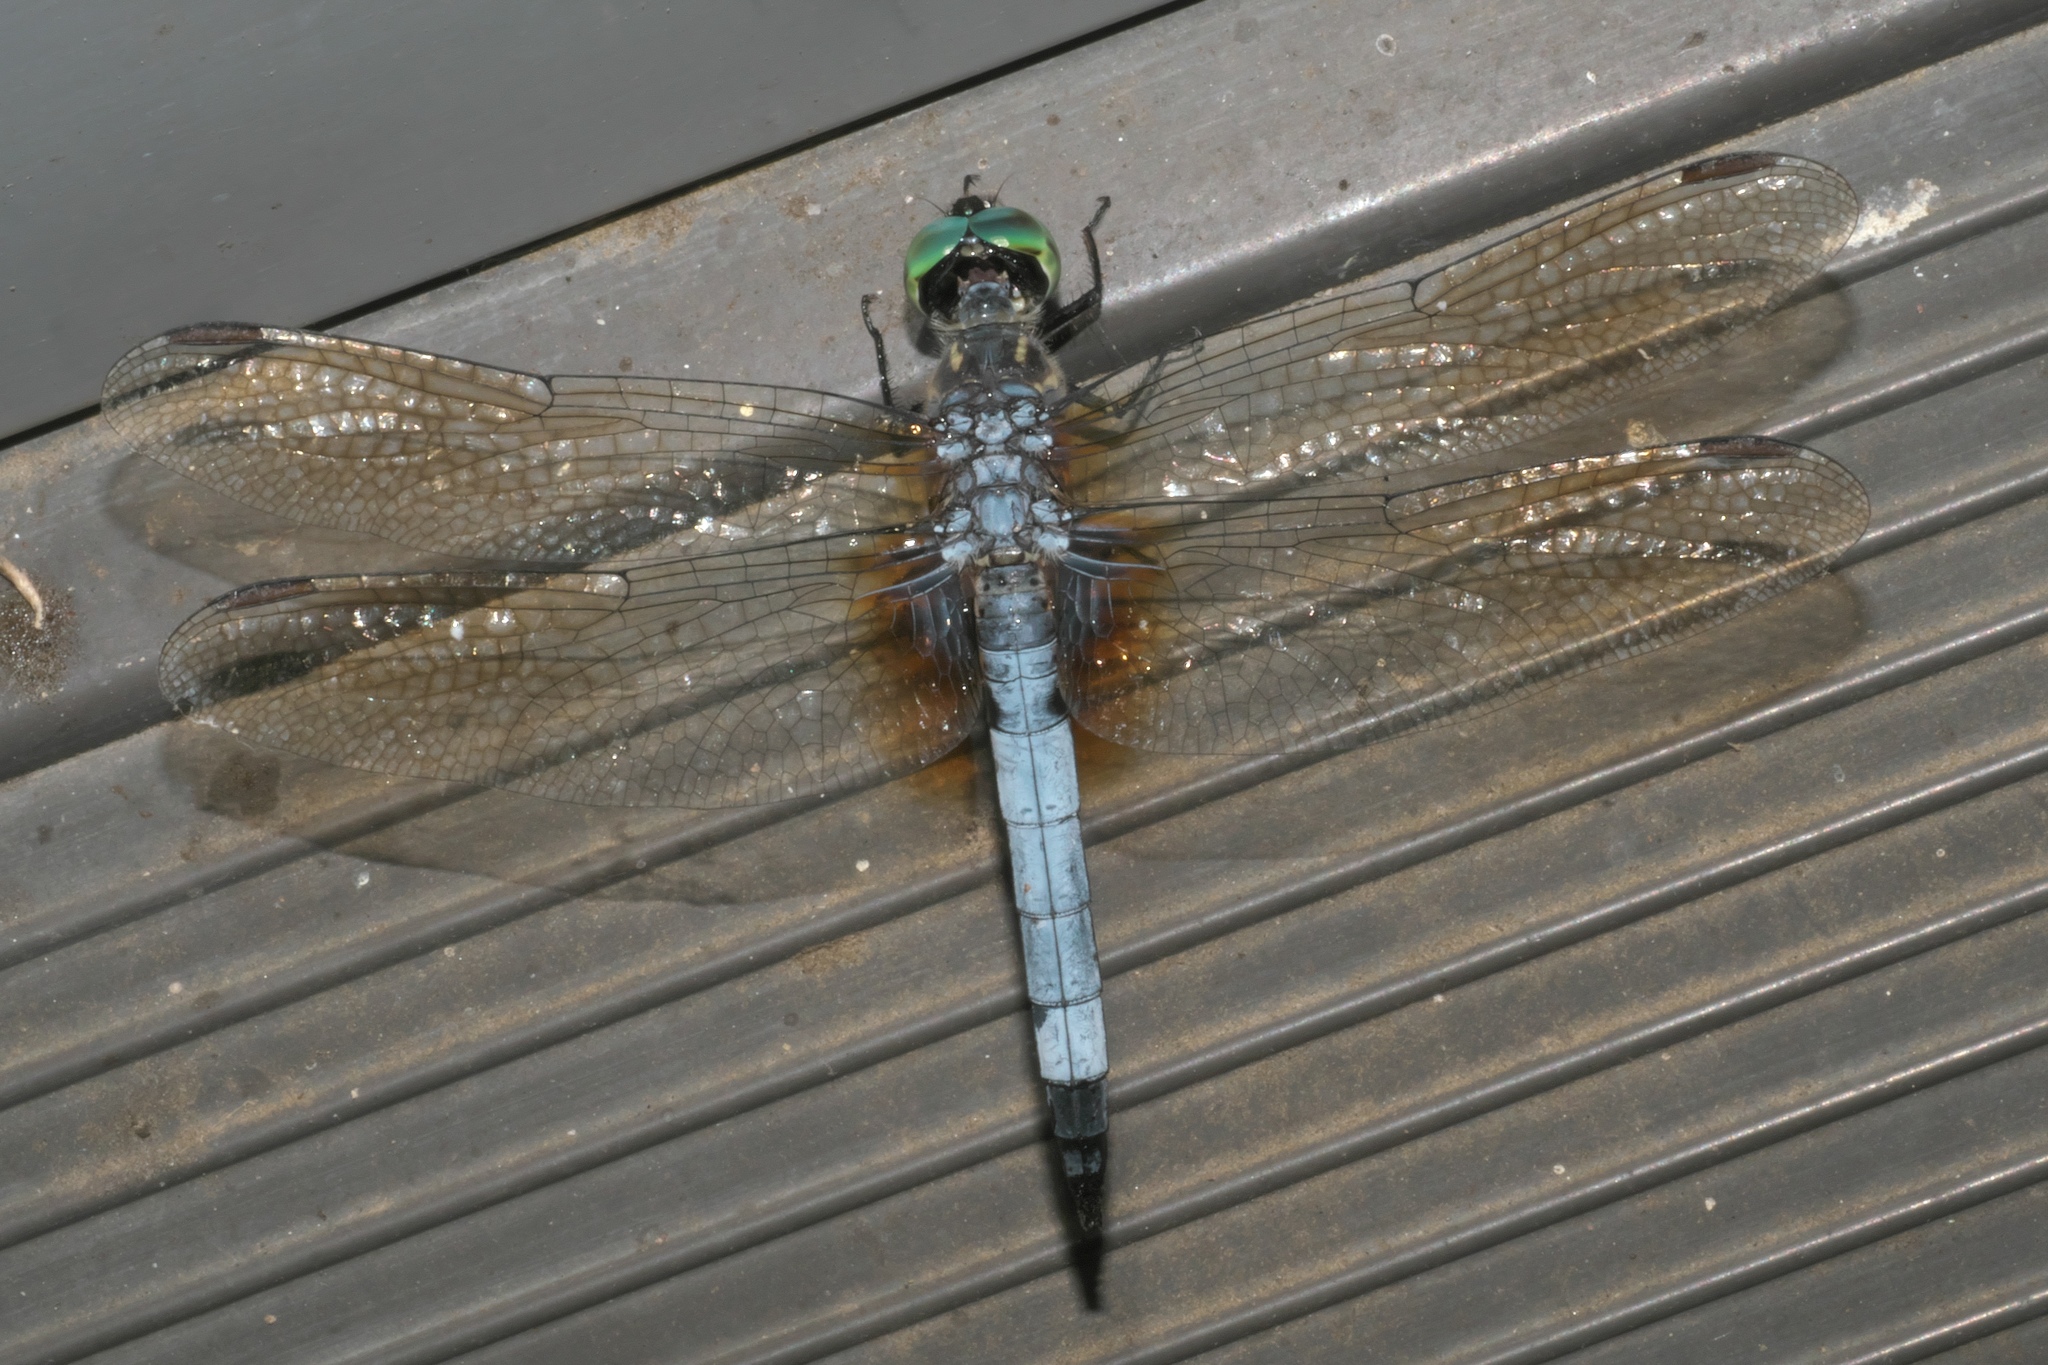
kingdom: Animalia
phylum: Arthropoda
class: Insecta
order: Odonata
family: Libellulidae
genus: Pachydiplax
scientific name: Pachydiplax longipennis
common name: Blue dasher
